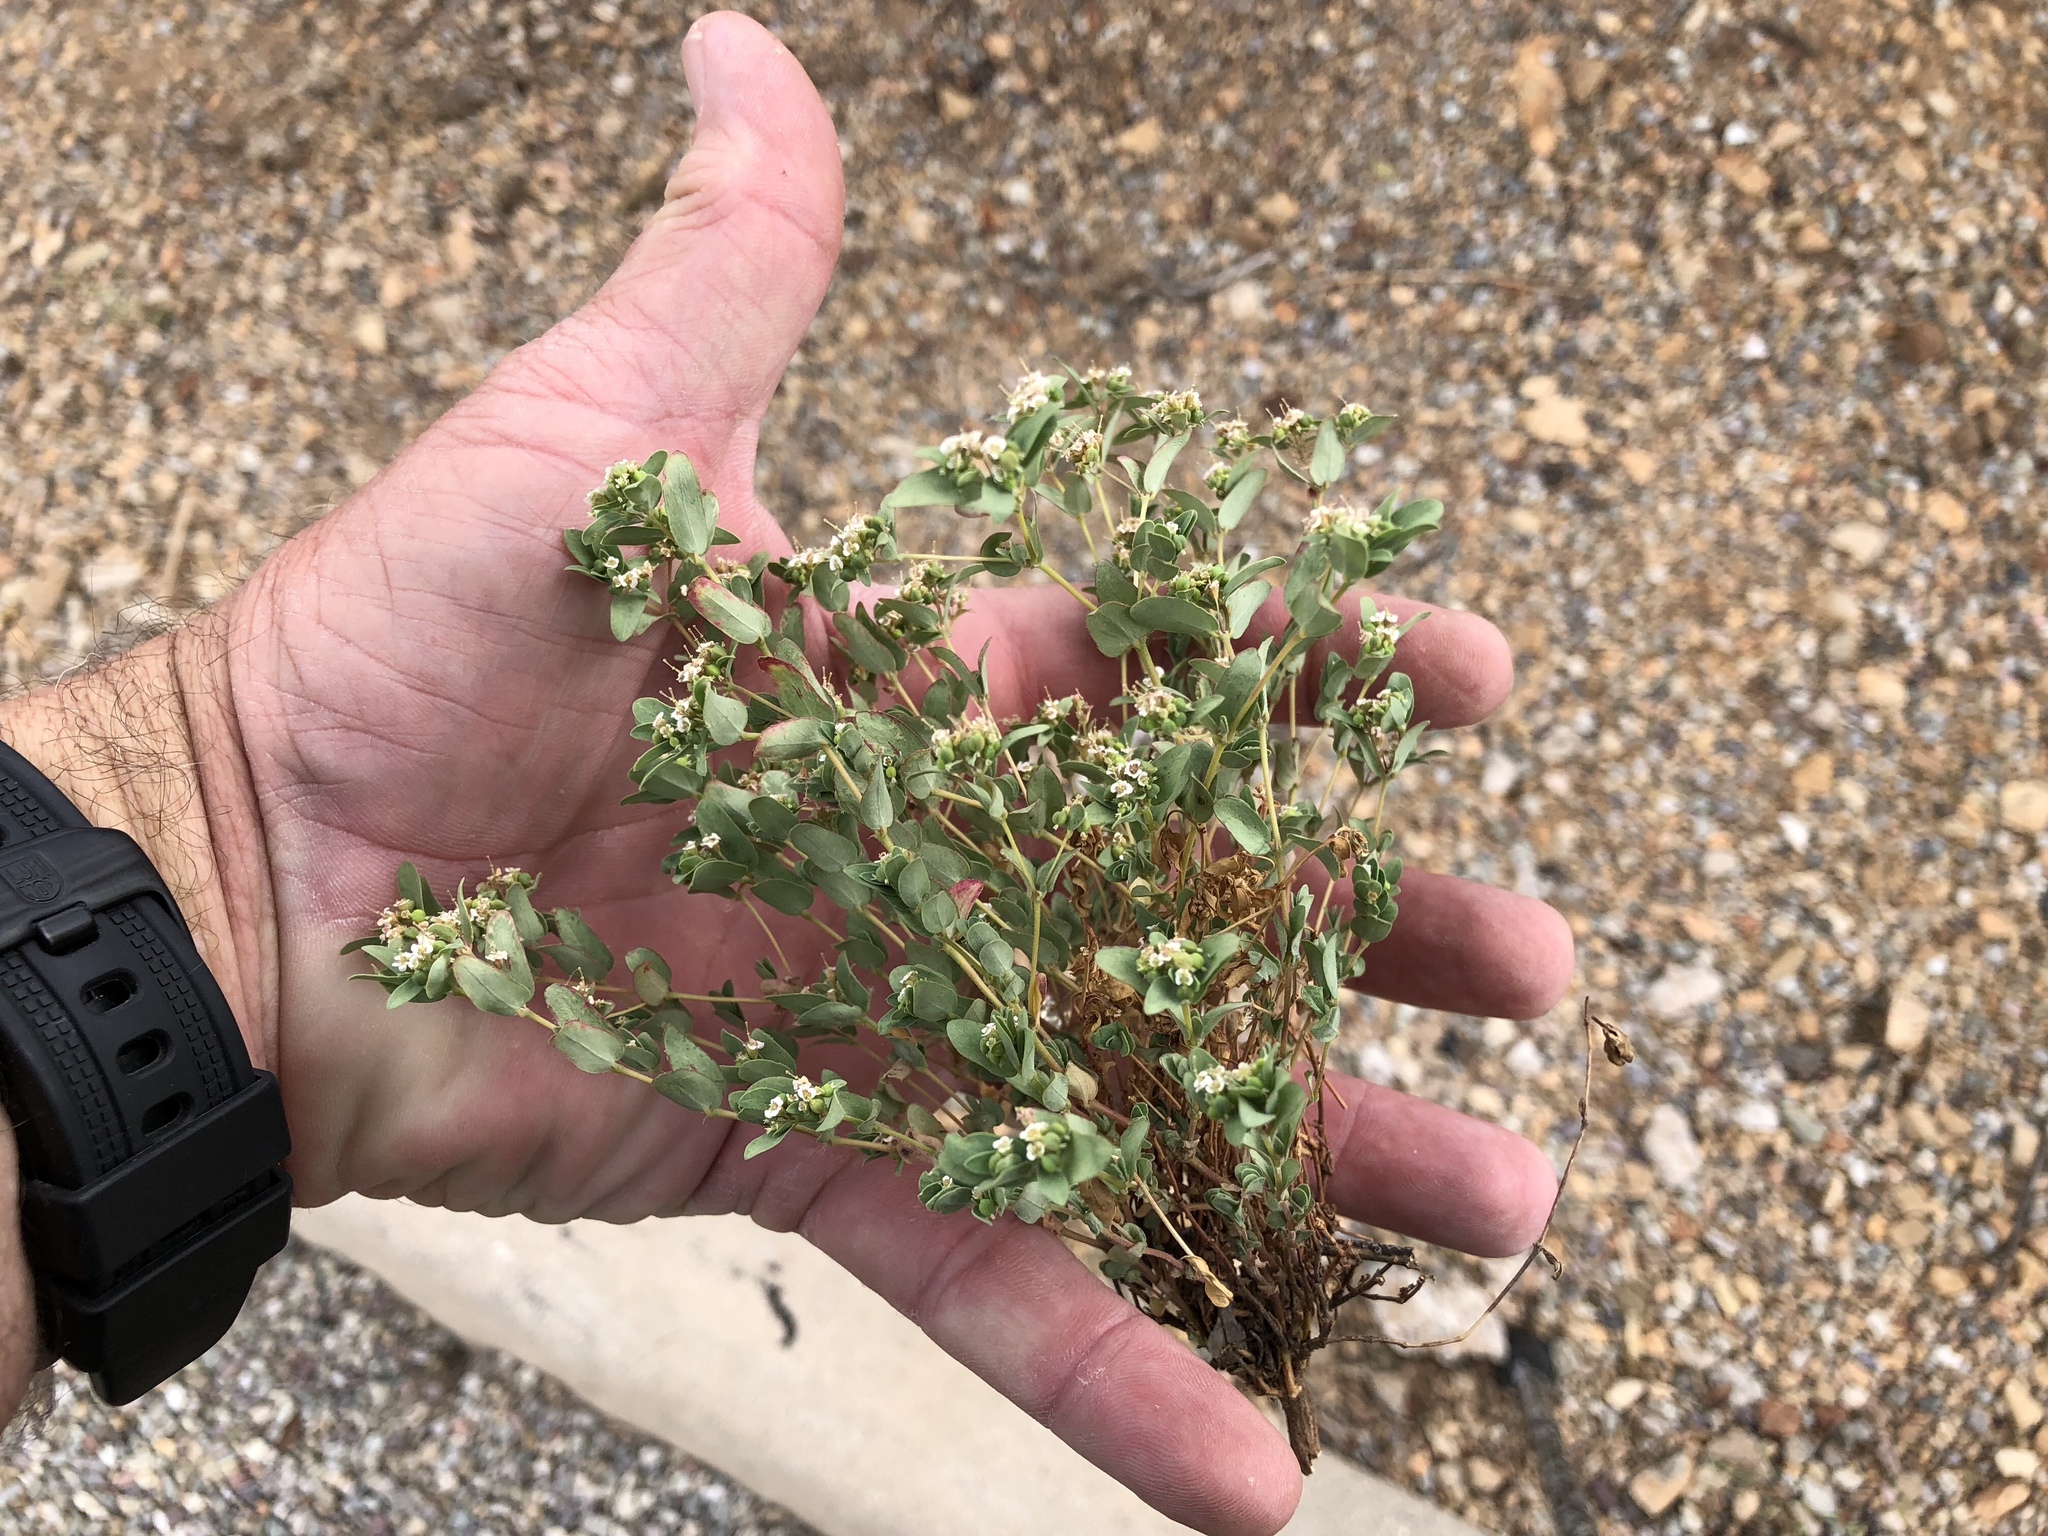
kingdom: Plantae
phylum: Tracheophyta
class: Magnoliopsida
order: Malpighiales
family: Euphorbiaceae
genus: Euphorbia
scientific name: Euphorbia capitellata
